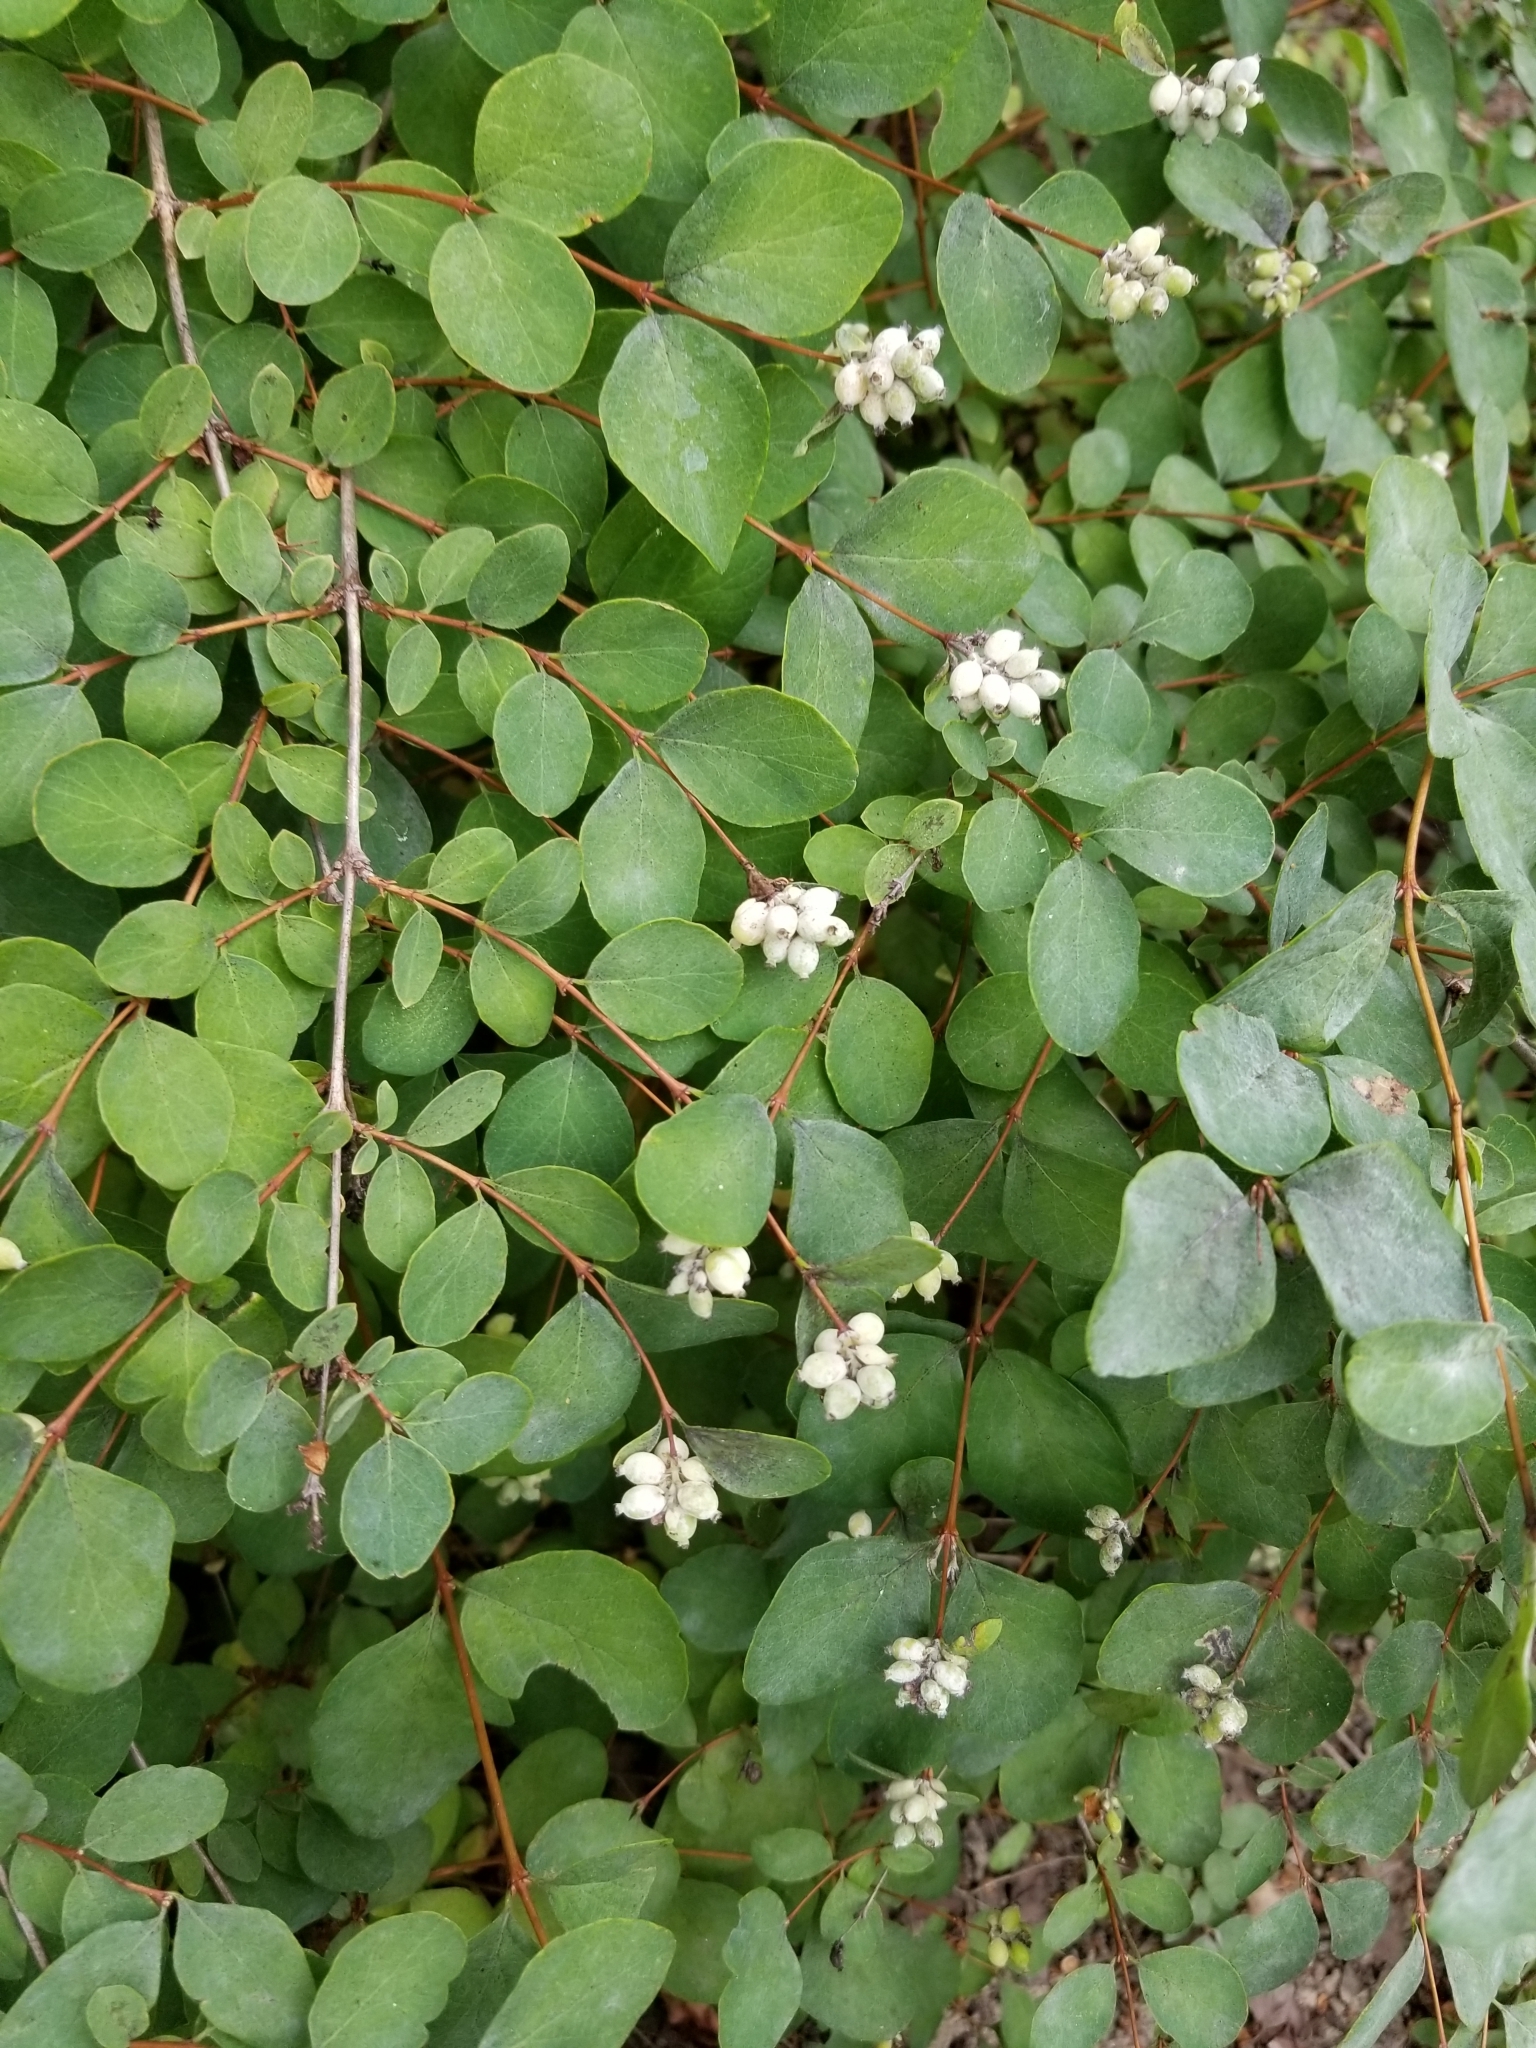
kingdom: Plantae
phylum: Tracheophyta
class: Magnoliopsida
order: Dipsacales
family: Caprifoliaceae
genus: Symphoricarpos
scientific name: Symphoricarpos albus
